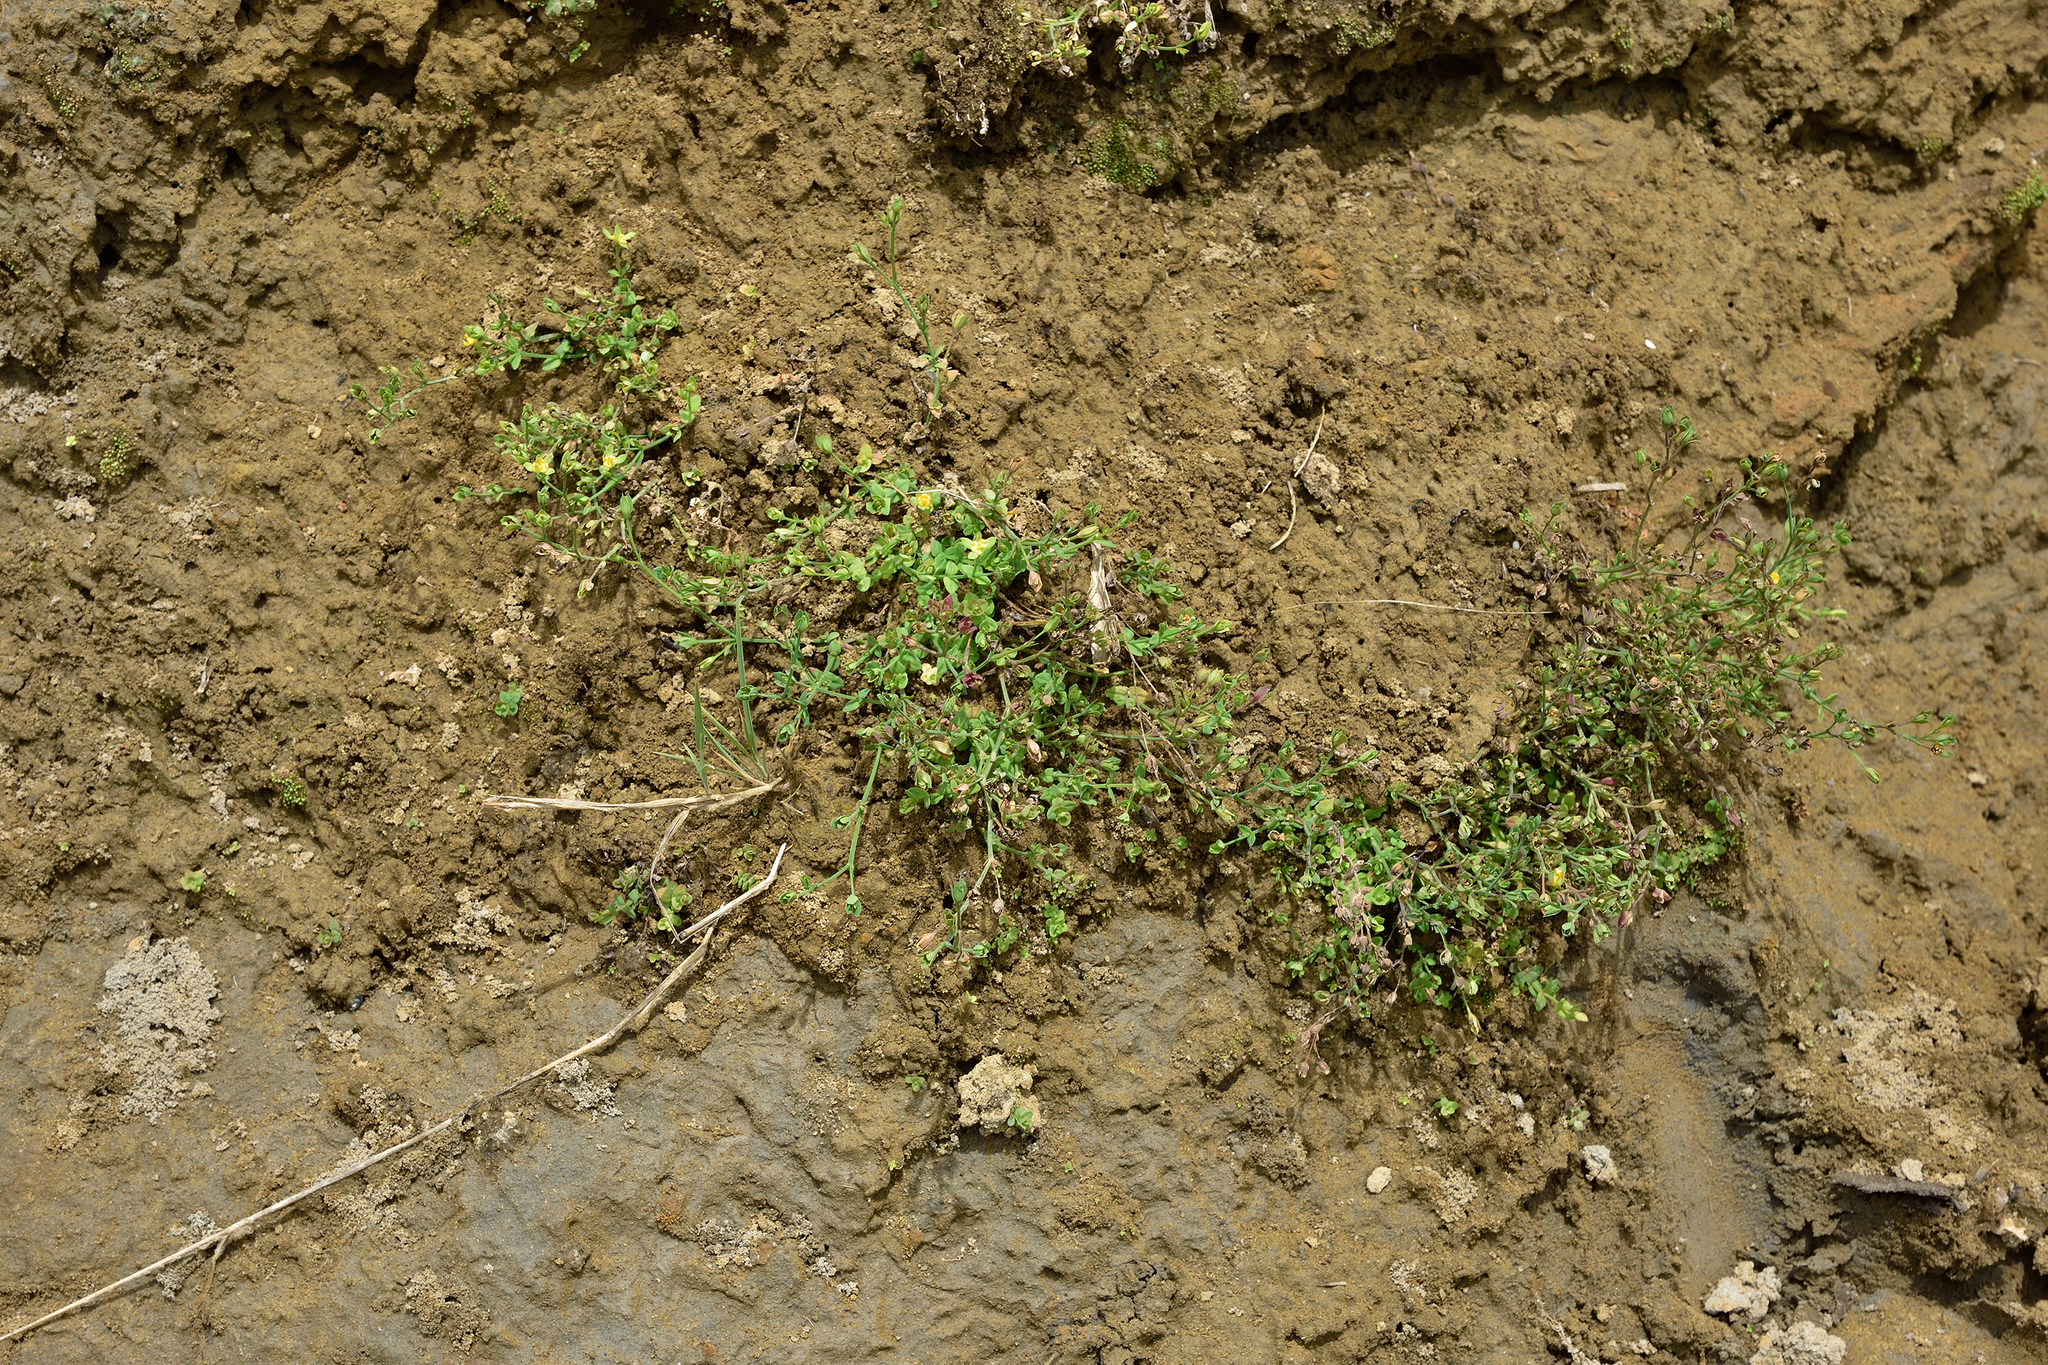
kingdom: Plantae
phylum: Tracheophyta
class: Magnoliopsida
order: Malpighiales
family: Hypericaceae
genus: Hypericum
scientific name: Hypericum japonicum
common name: Matted st. john's-wort
